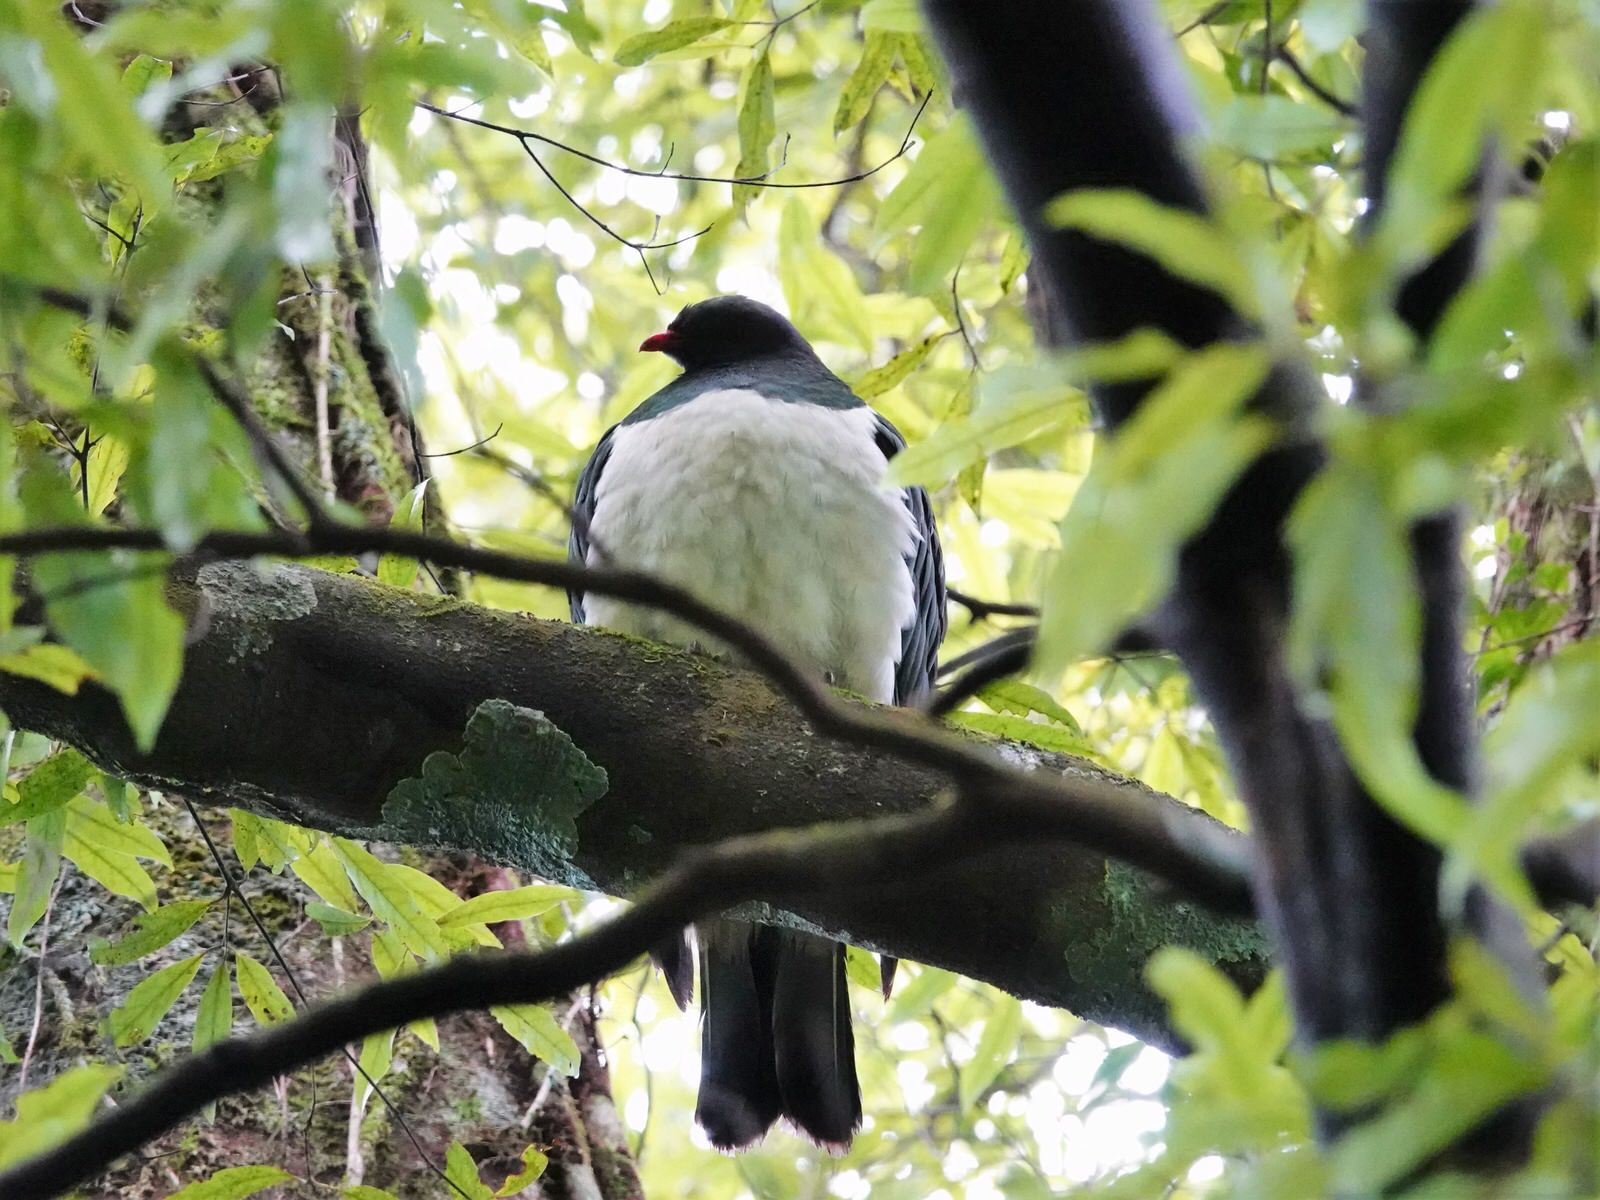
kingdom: Animalia
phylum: Chordata
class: Aves
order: Columbiformes
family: Columbidae
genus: Hemiphaga
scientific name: Hemiphaga novaeseelandiae
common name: New zealand pigeon
